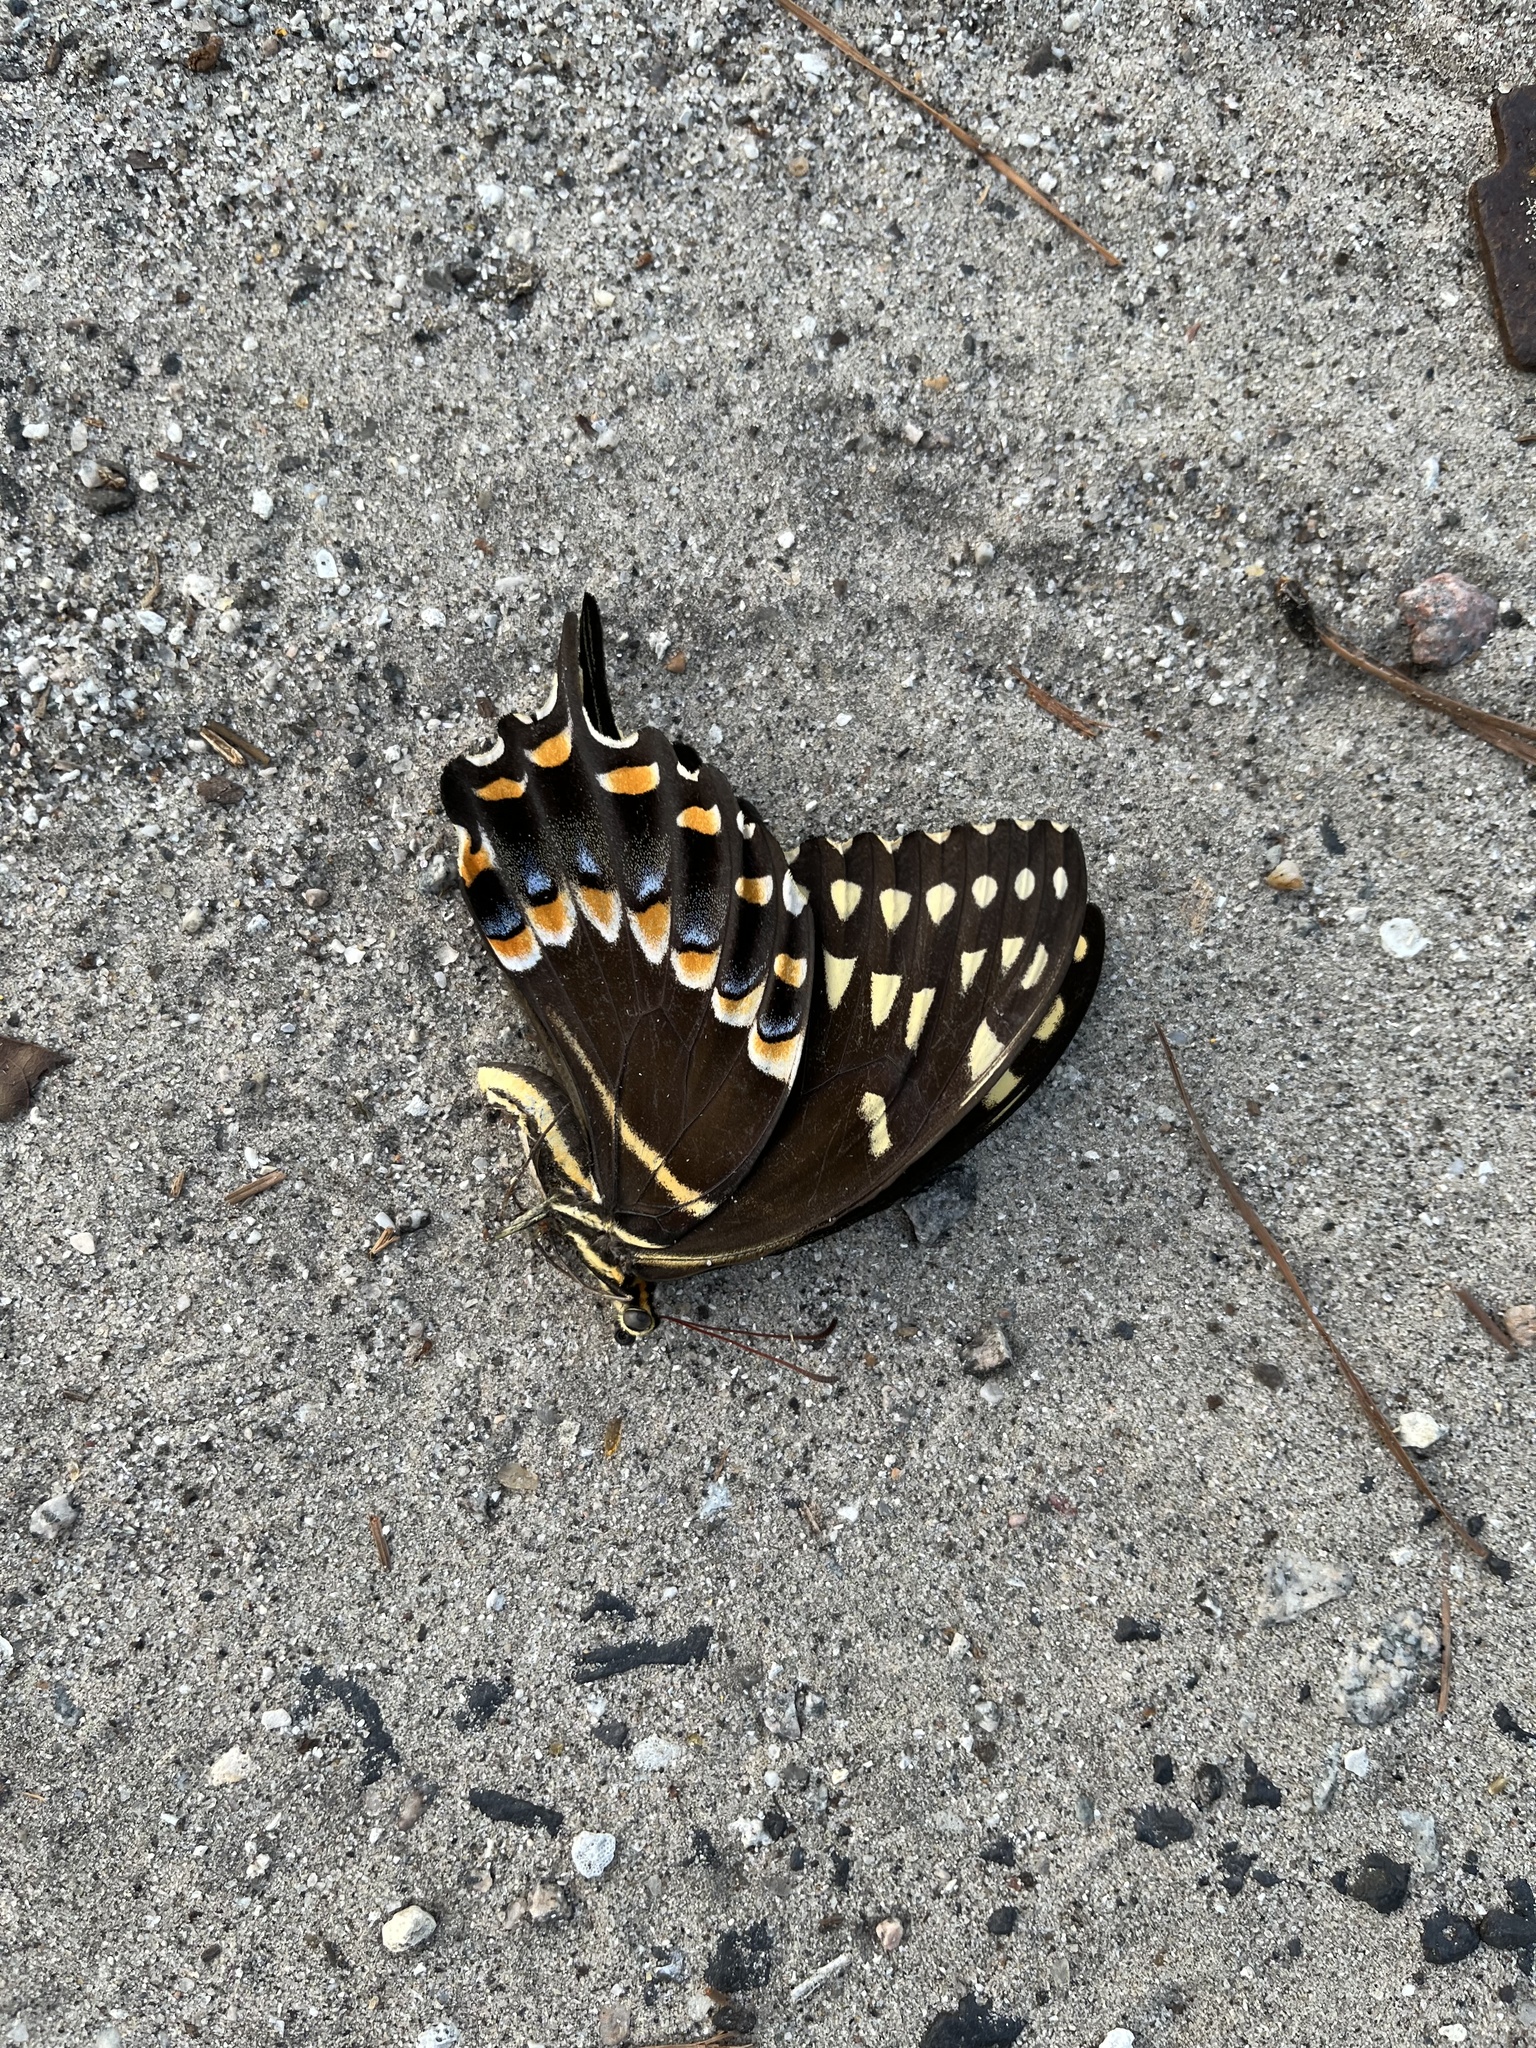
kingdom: Animalia
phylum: Arthropoda
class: Insecta
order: Lepidoptera
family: Papilionidae
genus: Papilio
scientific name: Papilio palamedes
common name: Palamedes swallowtail
